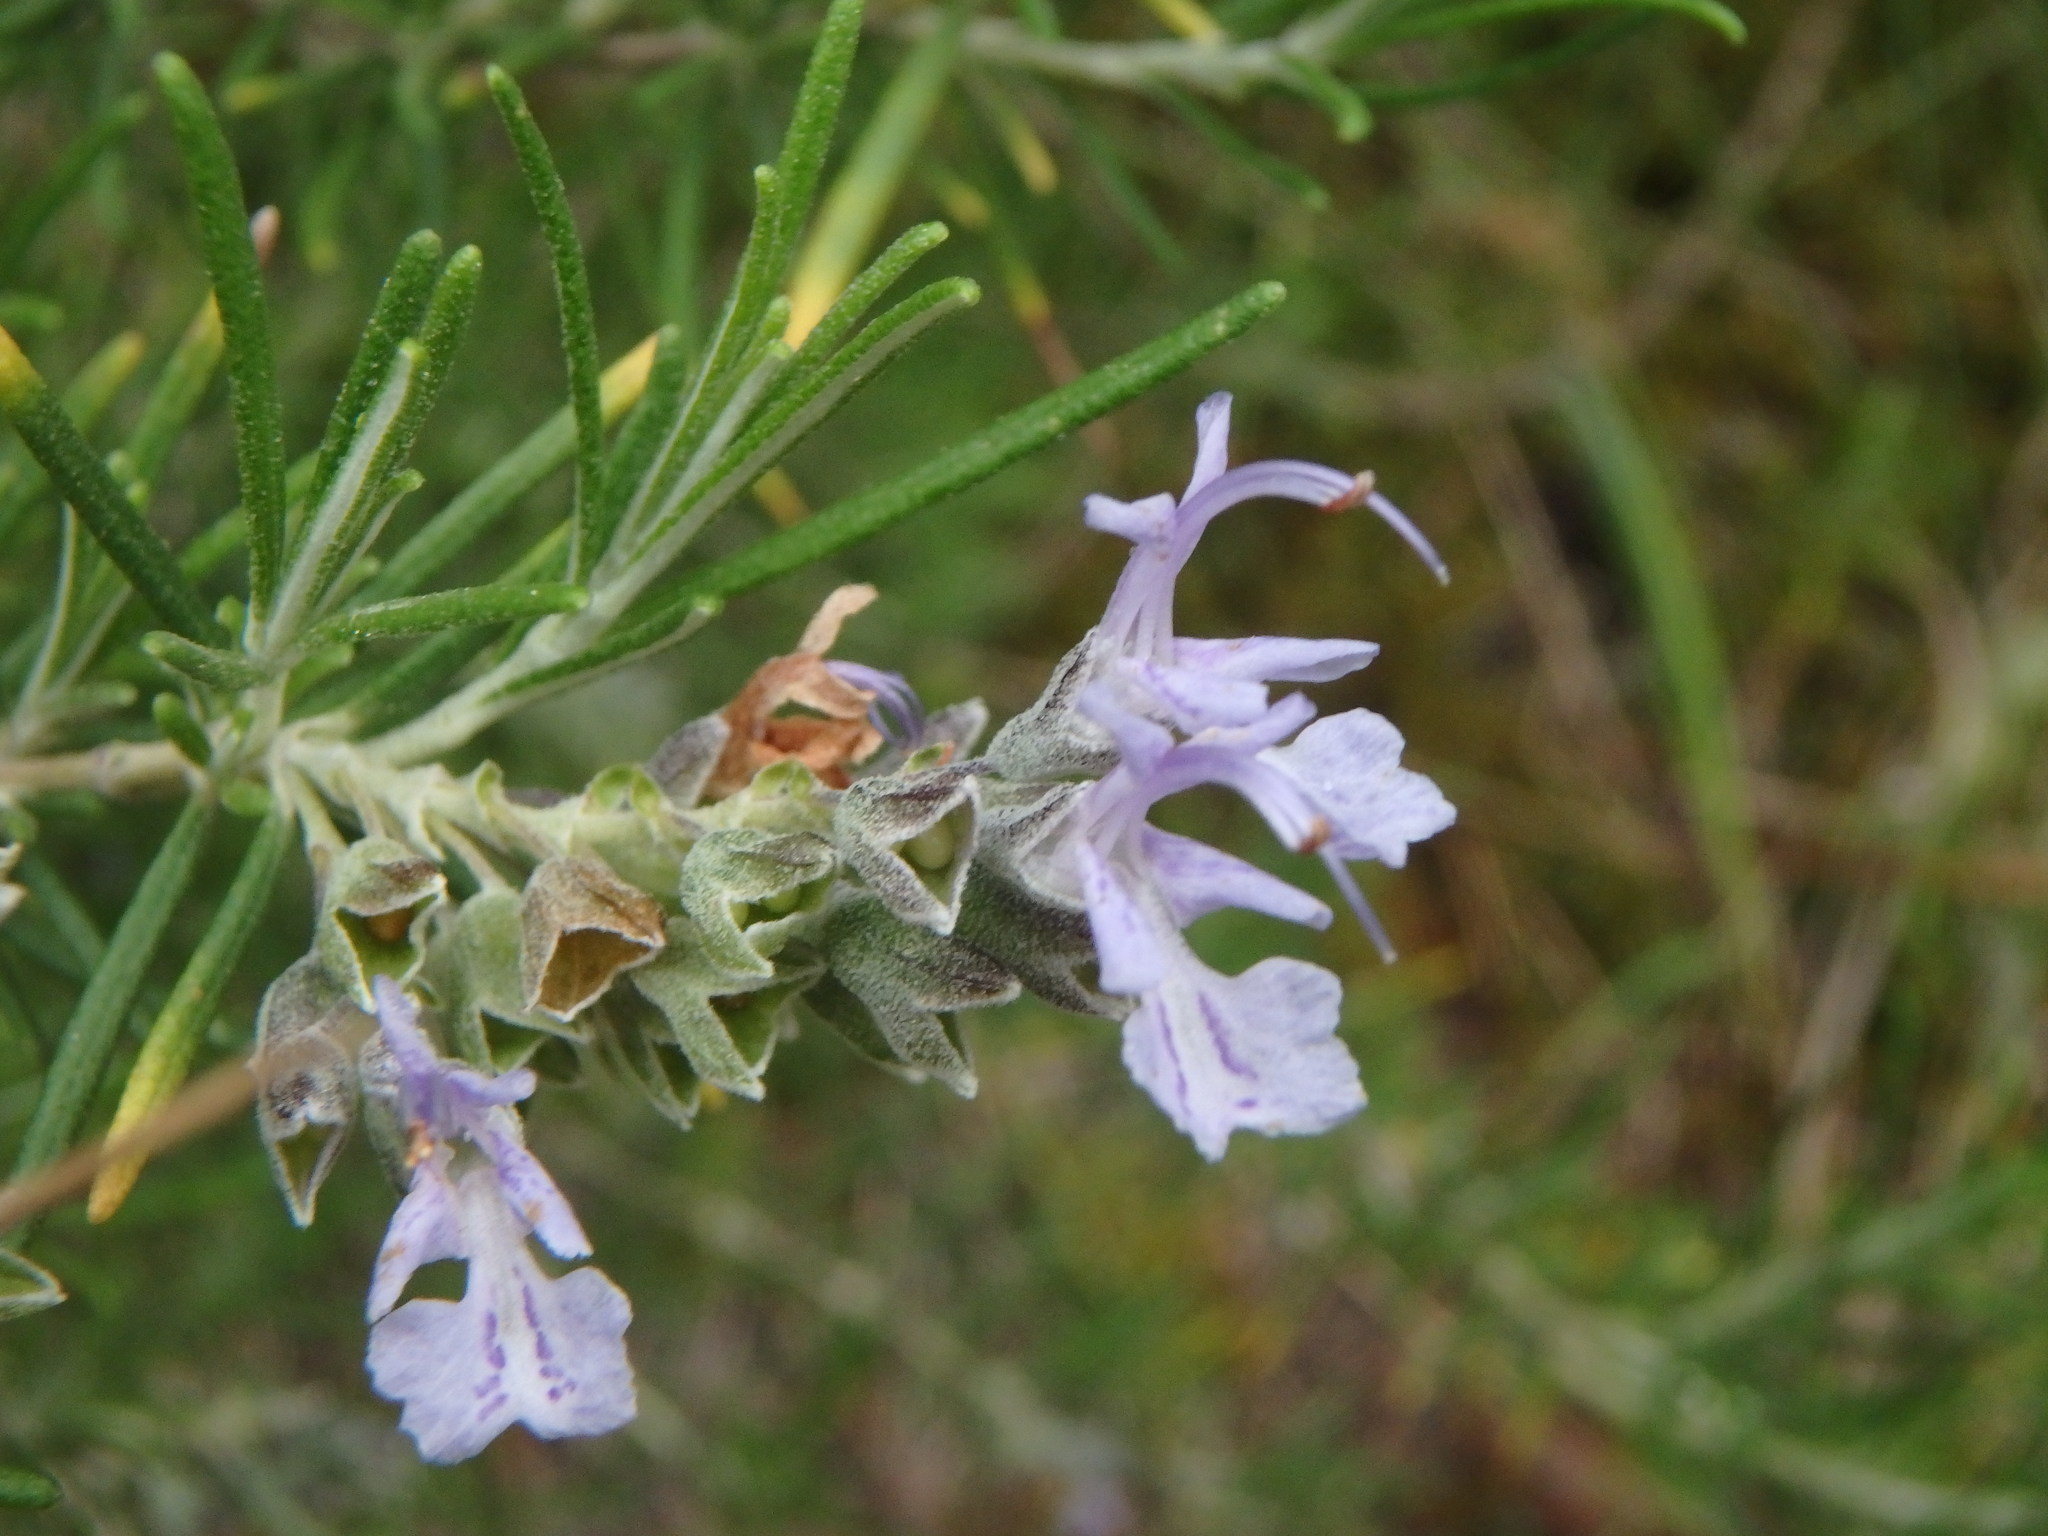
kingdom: Plantae
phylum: Tracheophyta
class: Magnoliopsida
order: Lamiales
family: Lamiaceae
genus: Salvia
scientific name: Salvia rosmarinus
